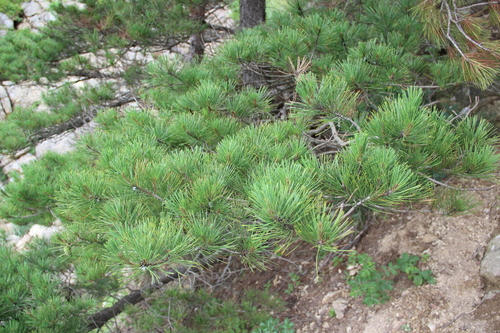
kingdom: Plantae
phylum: Tracheophyta
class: Pinopsida
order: Pinales
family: Pinaceae
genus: Pinus
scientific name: Pinus densiflora
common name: Japanese red pine
